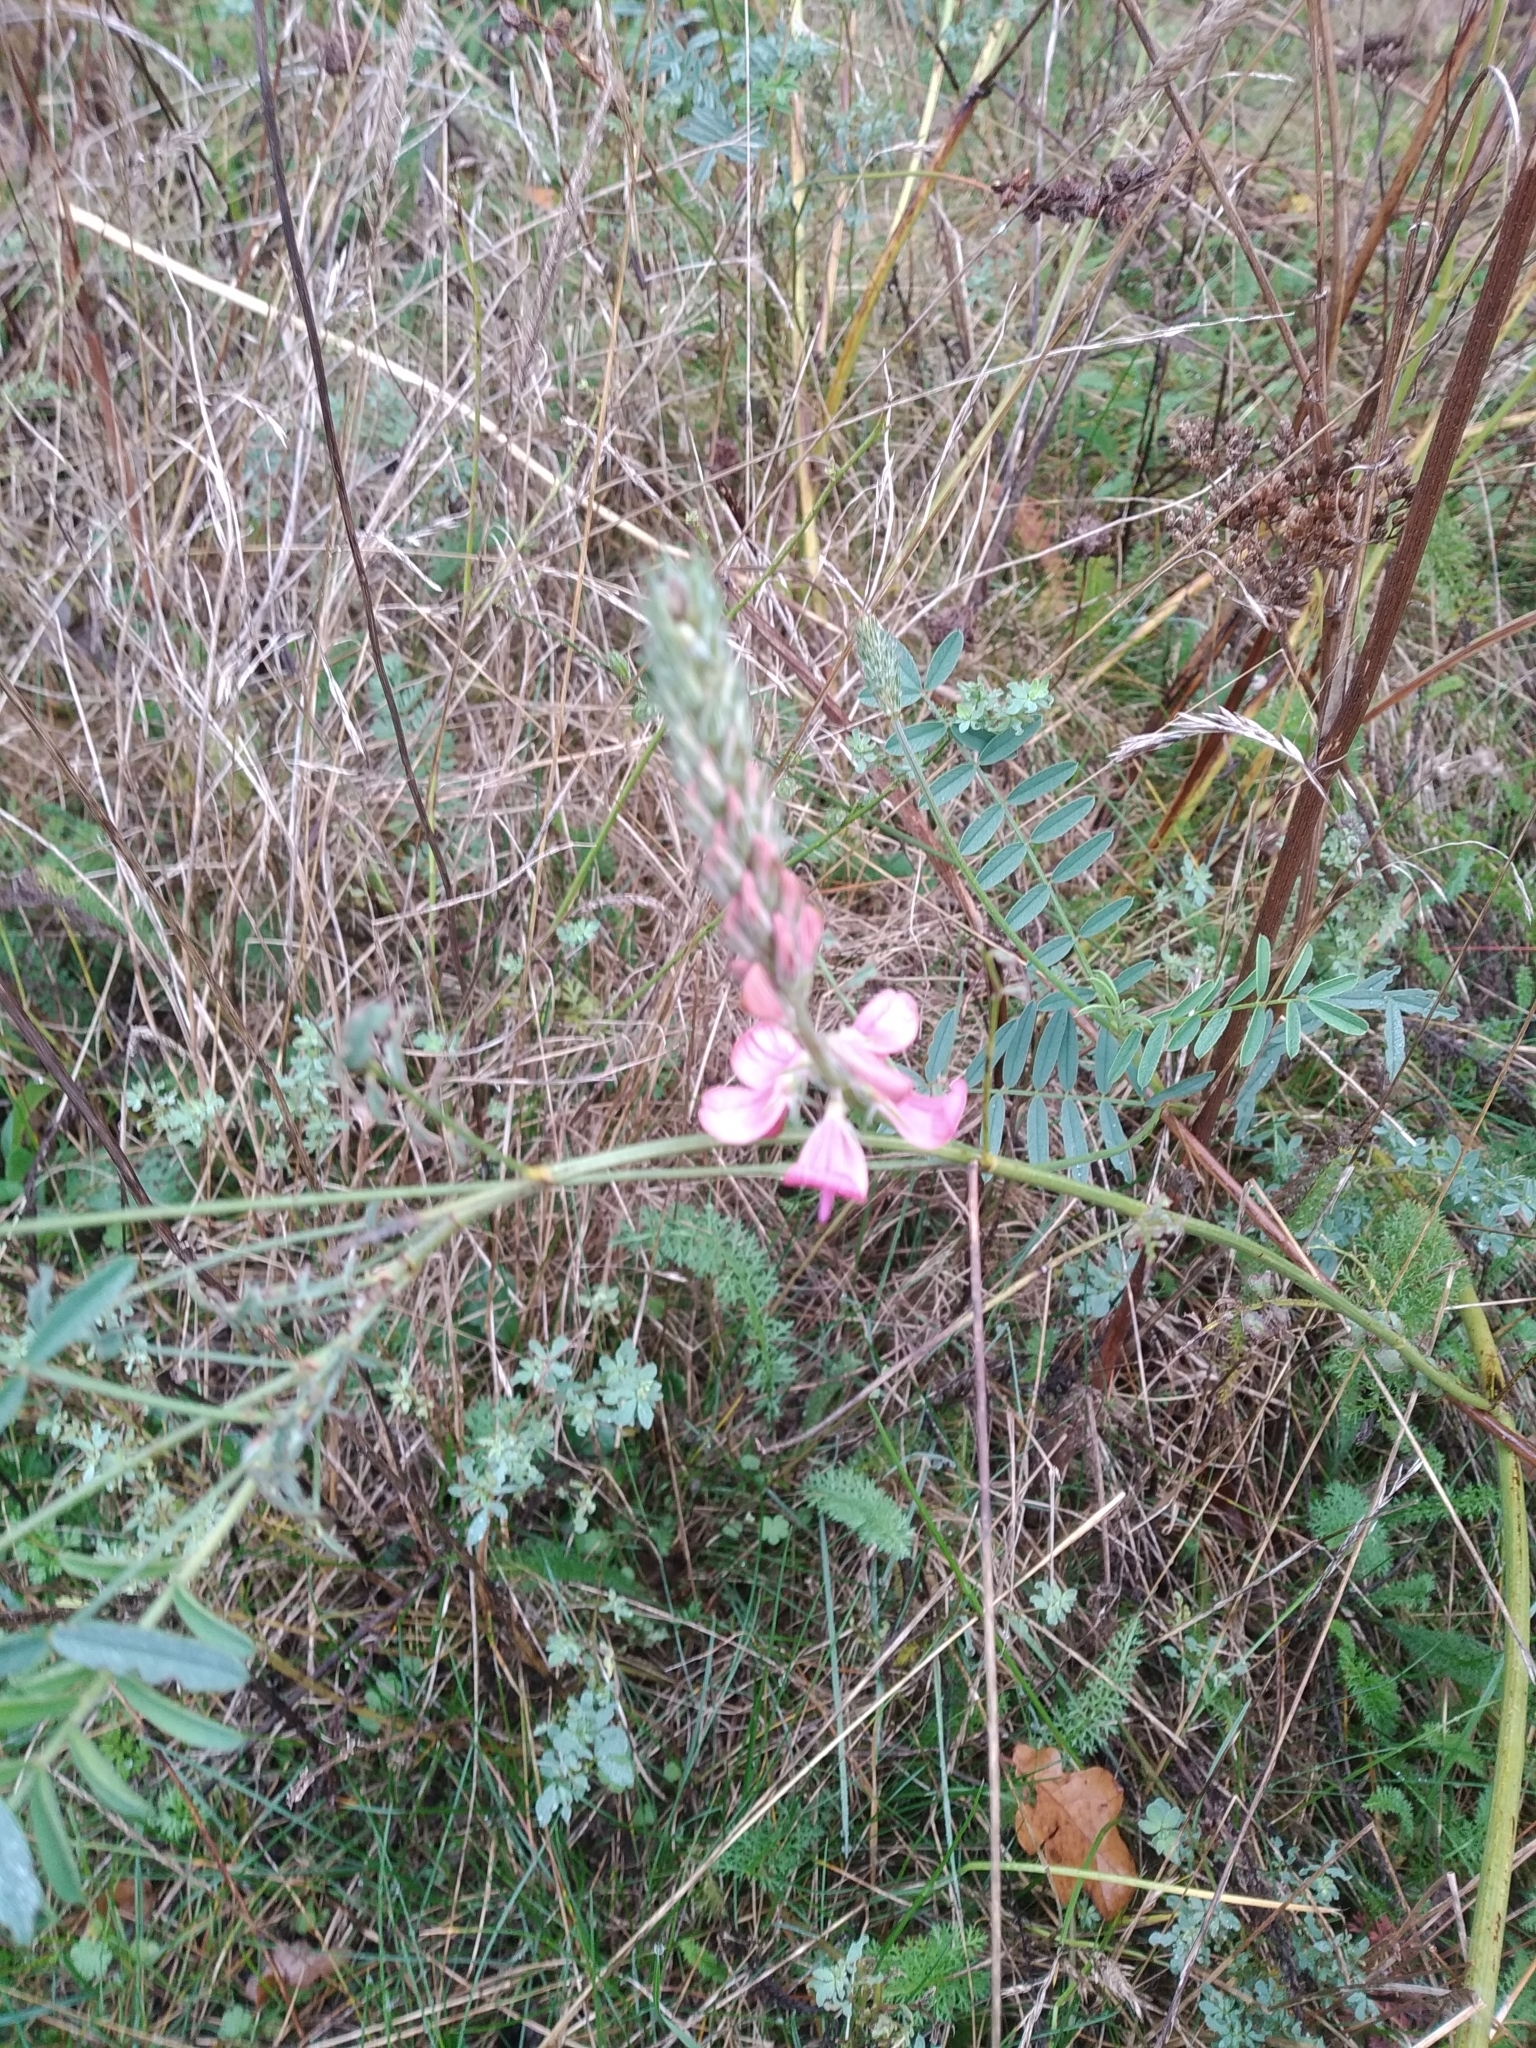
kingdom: Plantae
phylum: Tracheophyta
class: Magnoliopsida
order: Fabales
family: Fabaceae
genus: Onobrychis
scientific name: Onobrychis viciifolia
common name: Sainfoin
